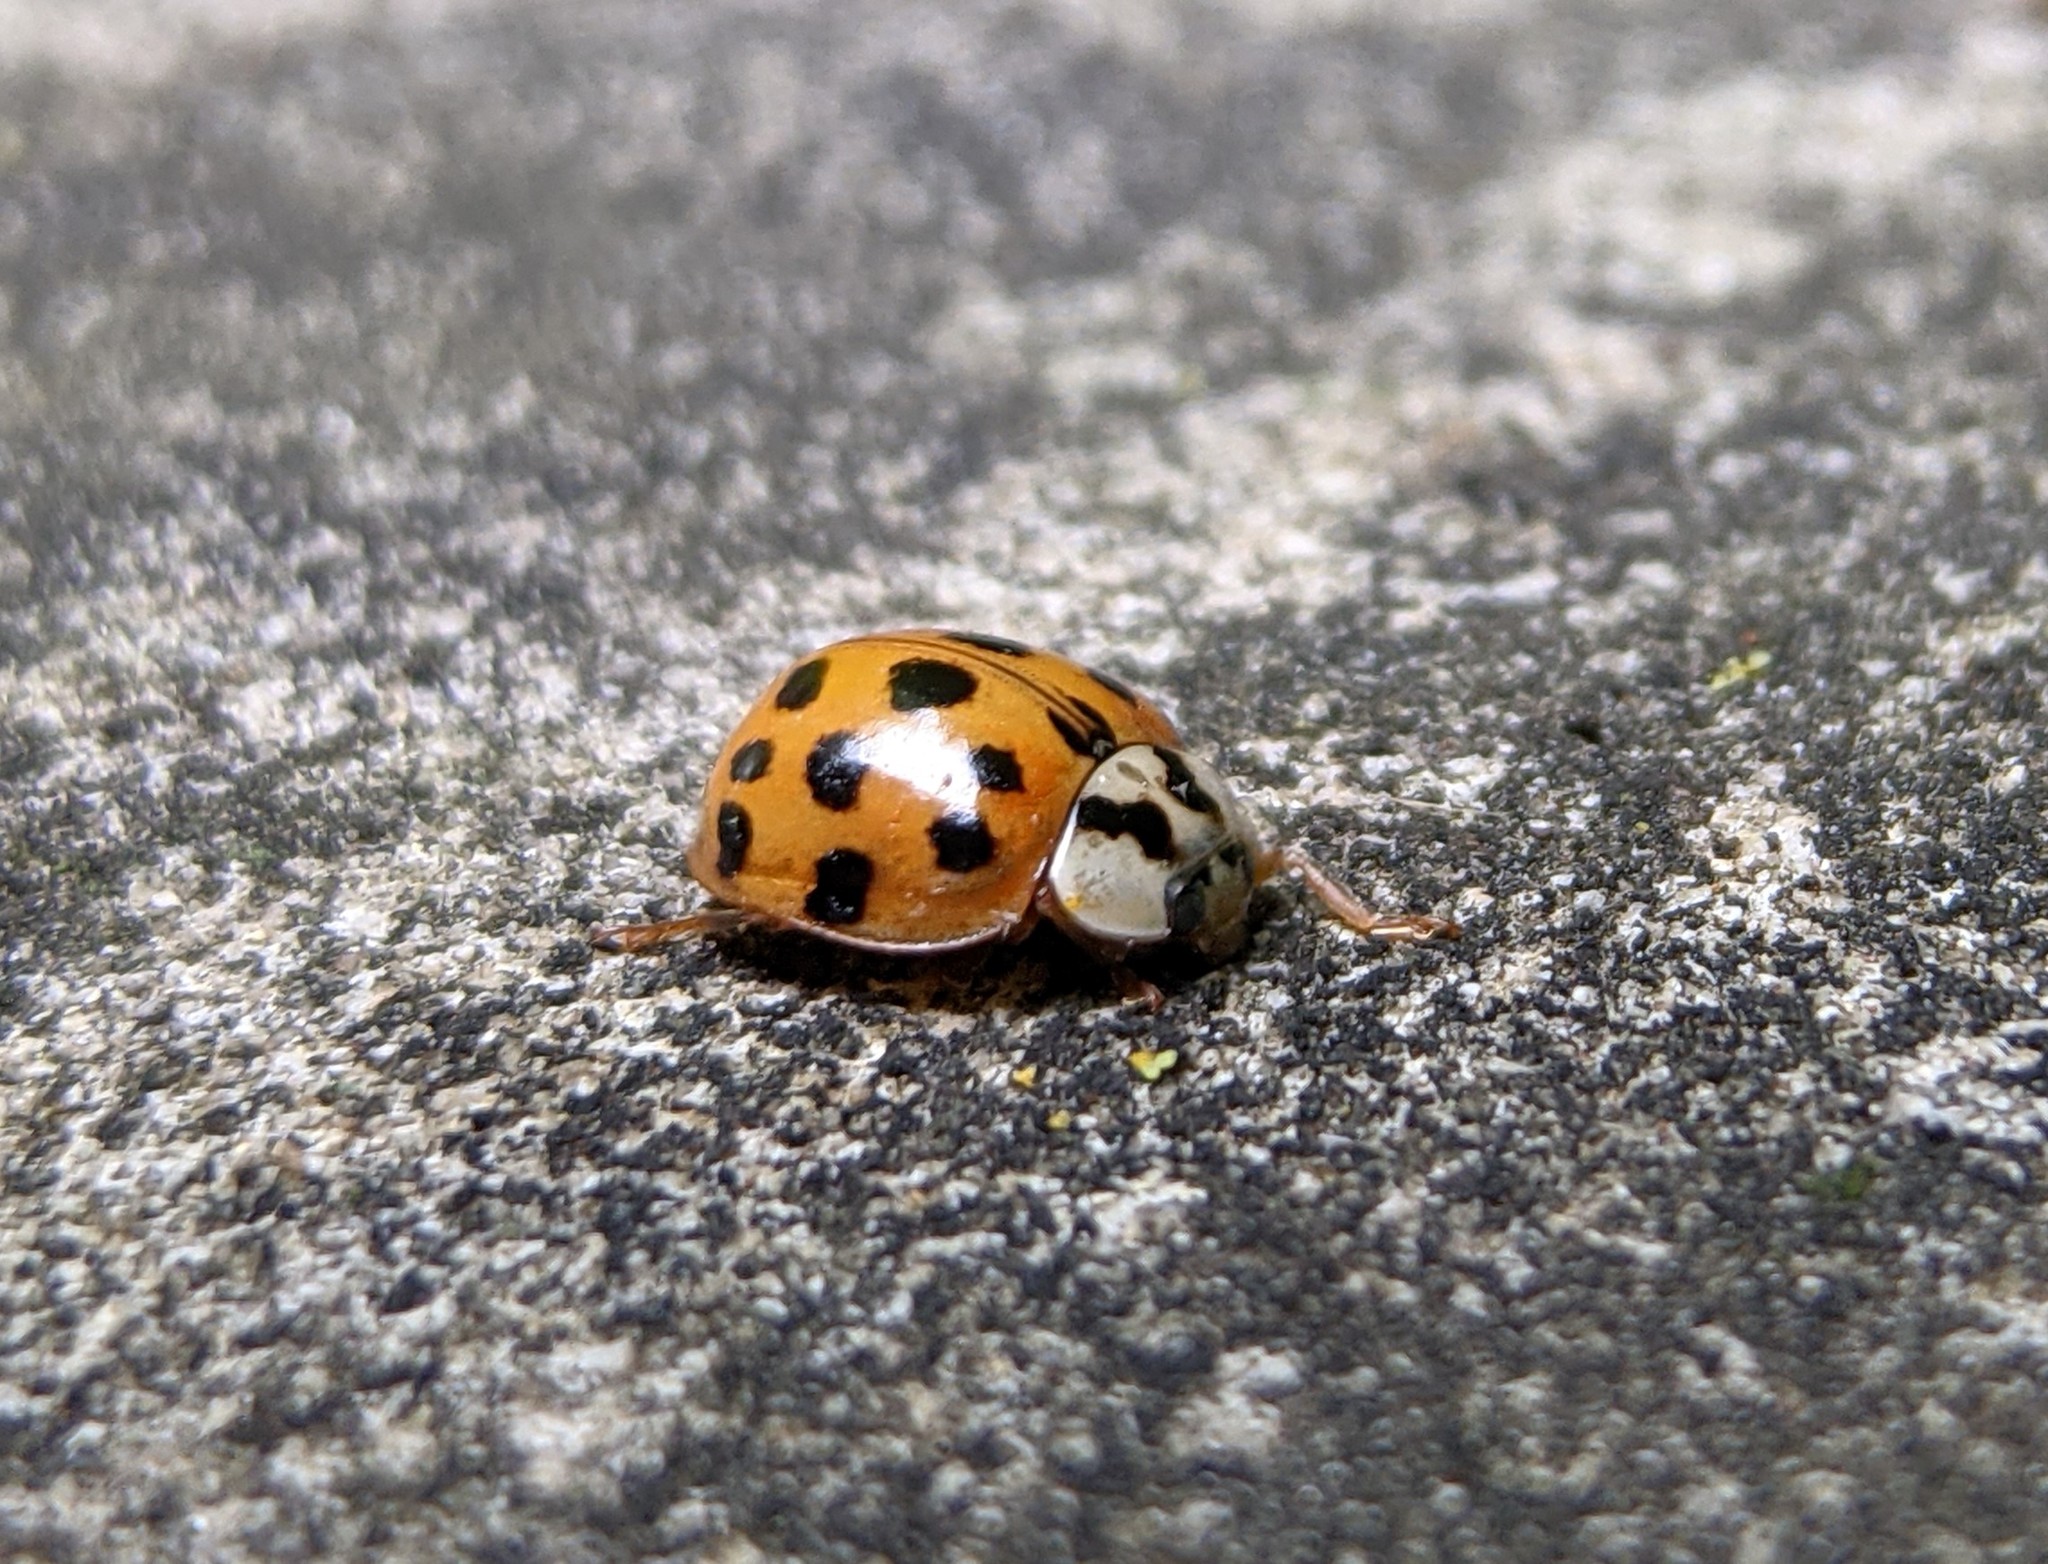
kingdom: Animalia
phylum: Arthropoda
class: Insecta
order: Coleoptera
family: Coccinellidae
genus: Harmonia
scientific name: Harmonia axyridis
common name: Harlequin ladybird
